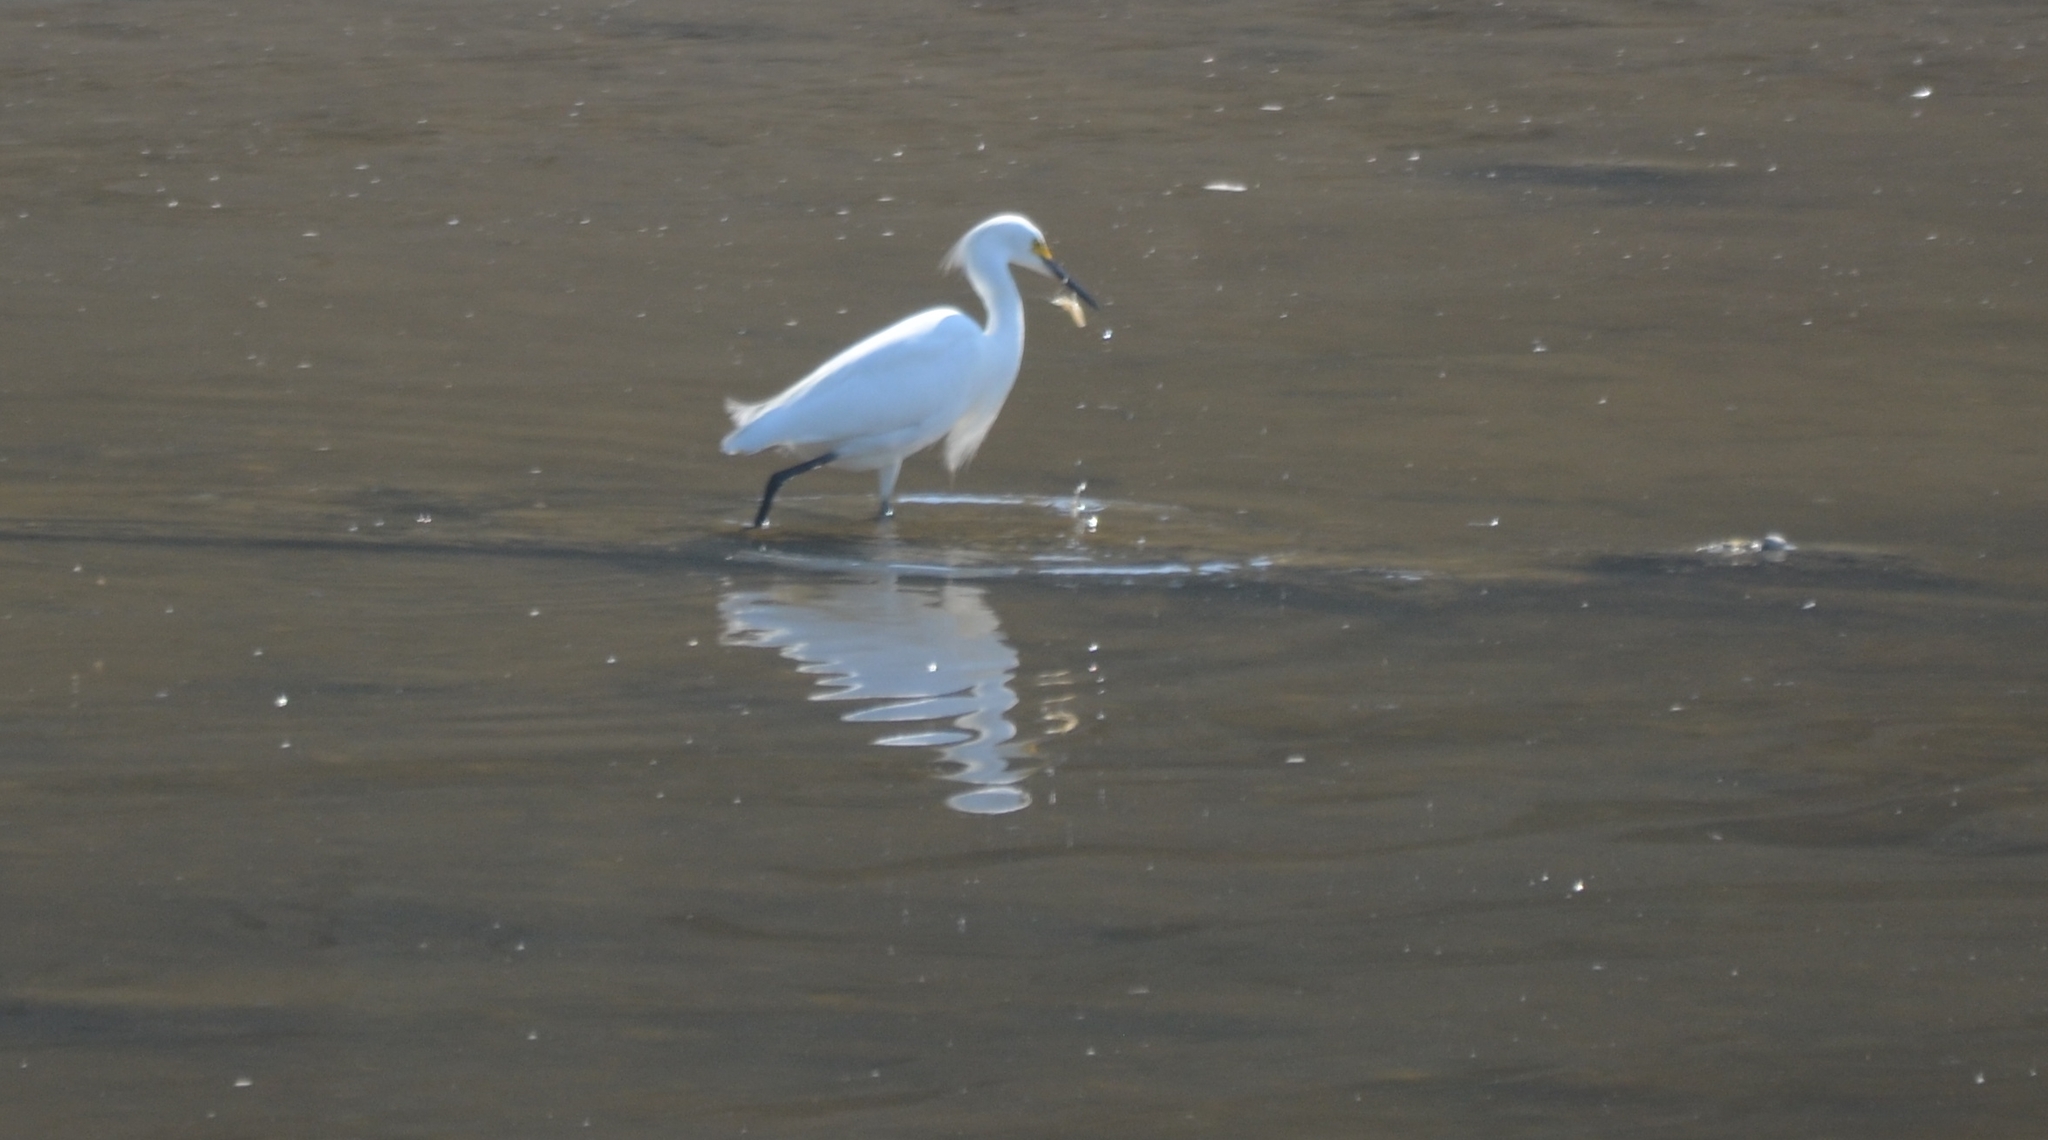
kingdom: Animalia
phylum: Chordata
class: Aves
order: Pelecaniformes
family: Ardeidae
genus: Egretta
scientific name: Egretta thula
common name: Snowy egret
